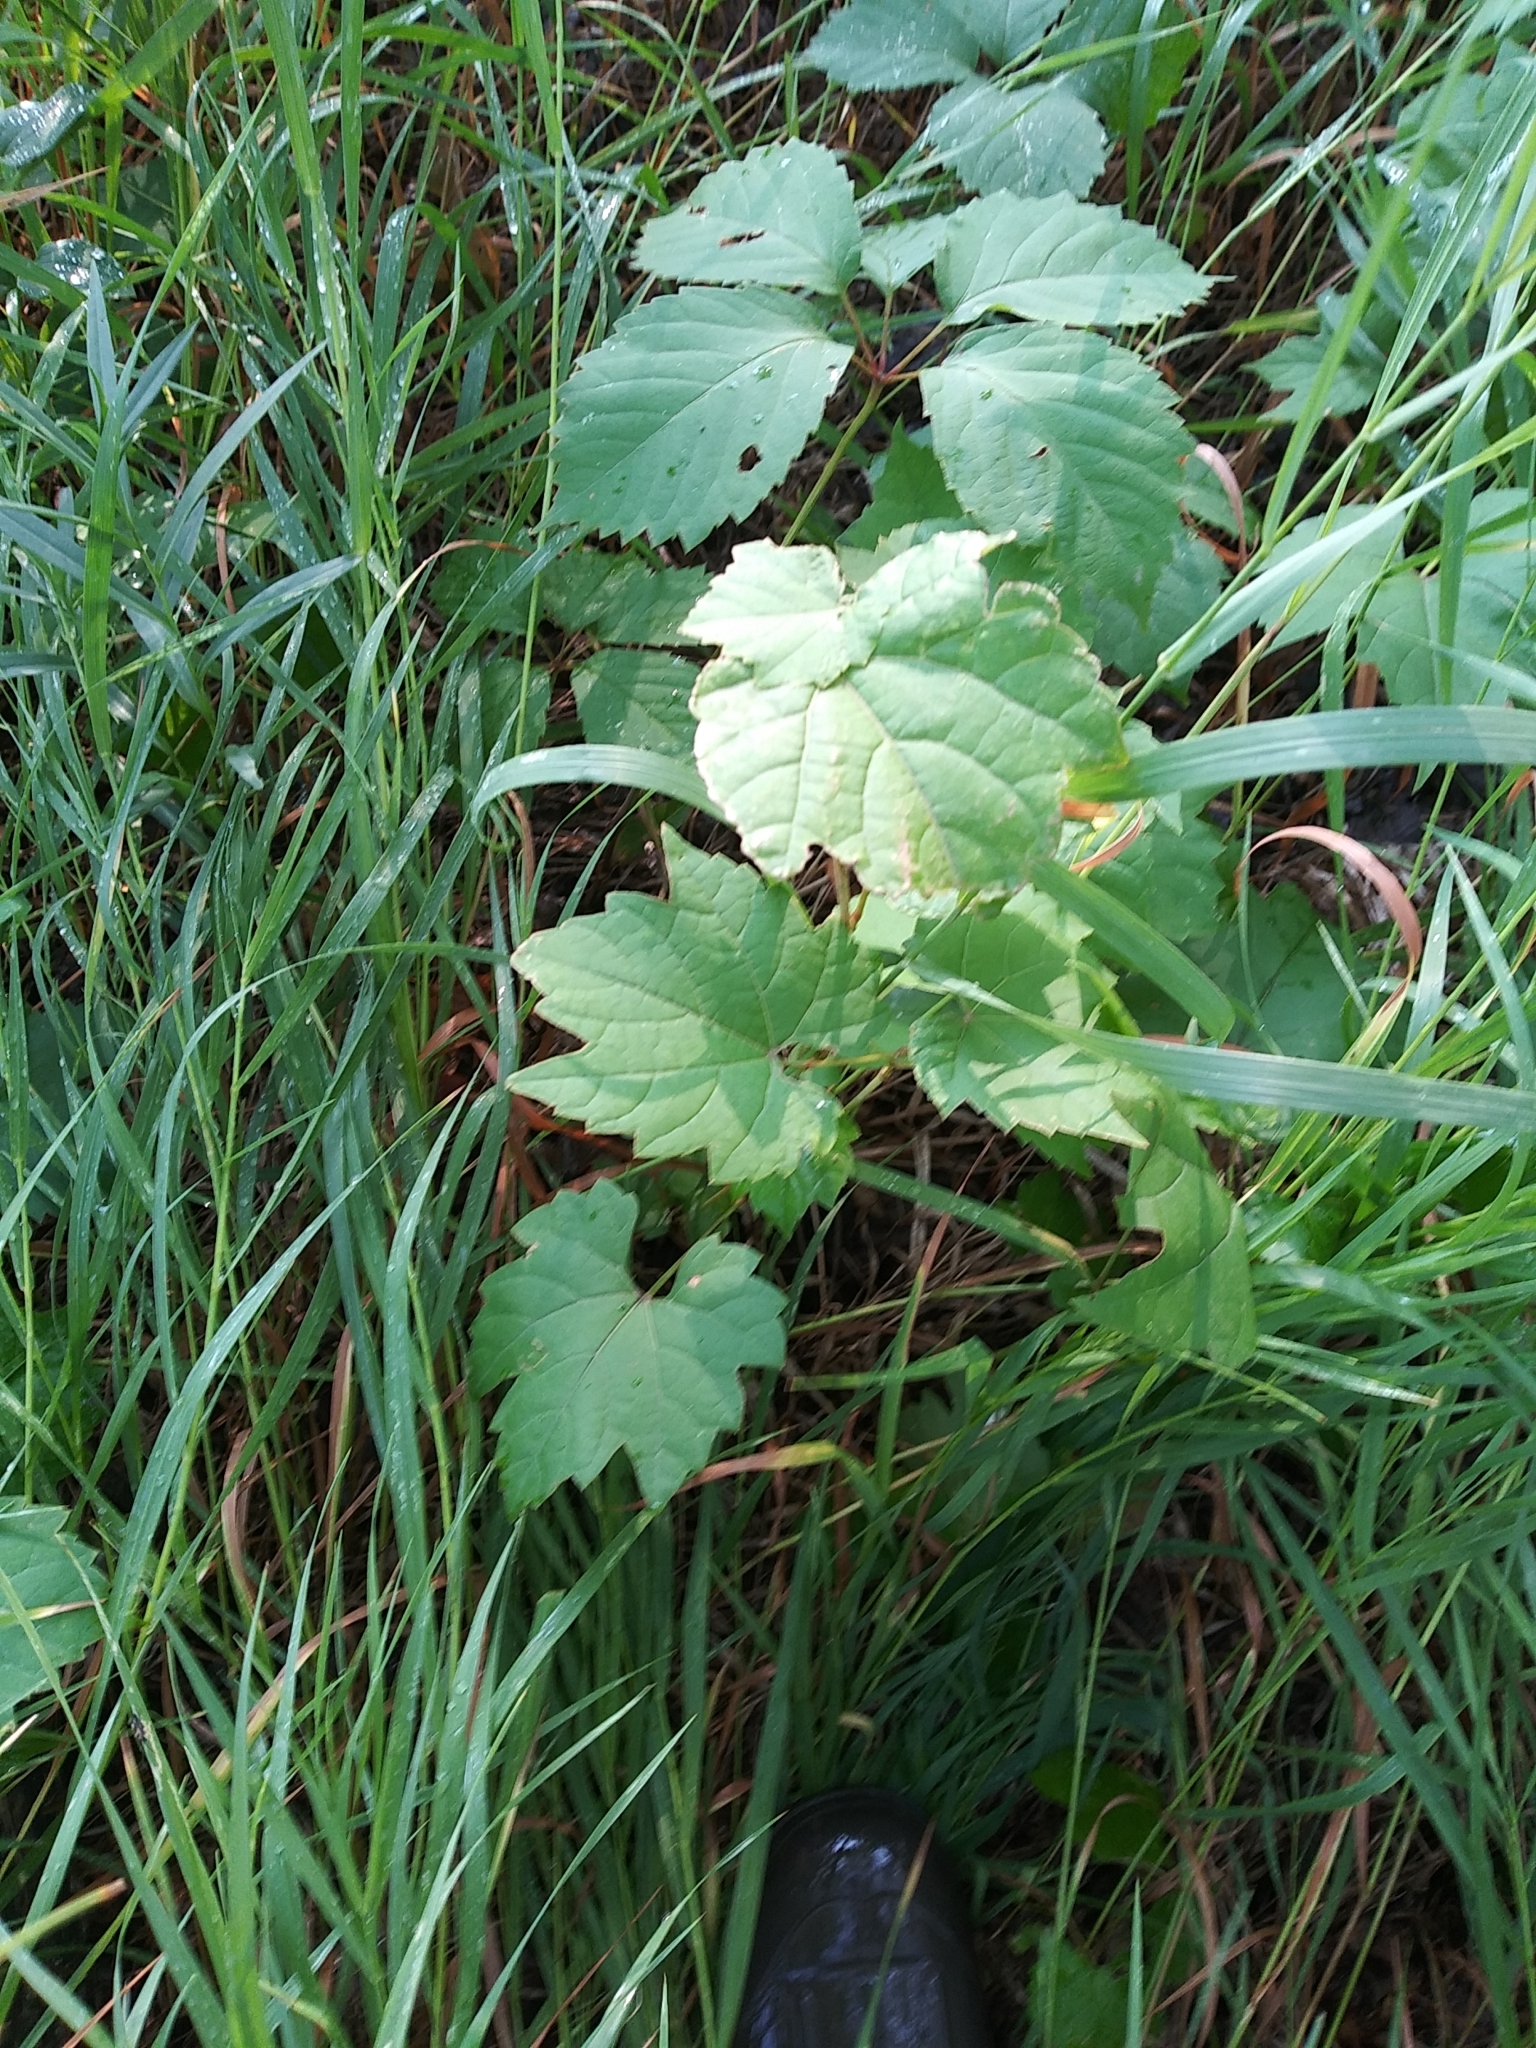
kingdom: Plantae
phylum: Tracheophyta
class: Magnoliopsida
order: Vitales
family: Vitaceae
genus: Vitis
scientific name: Vitis riparia
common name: Frost grape
